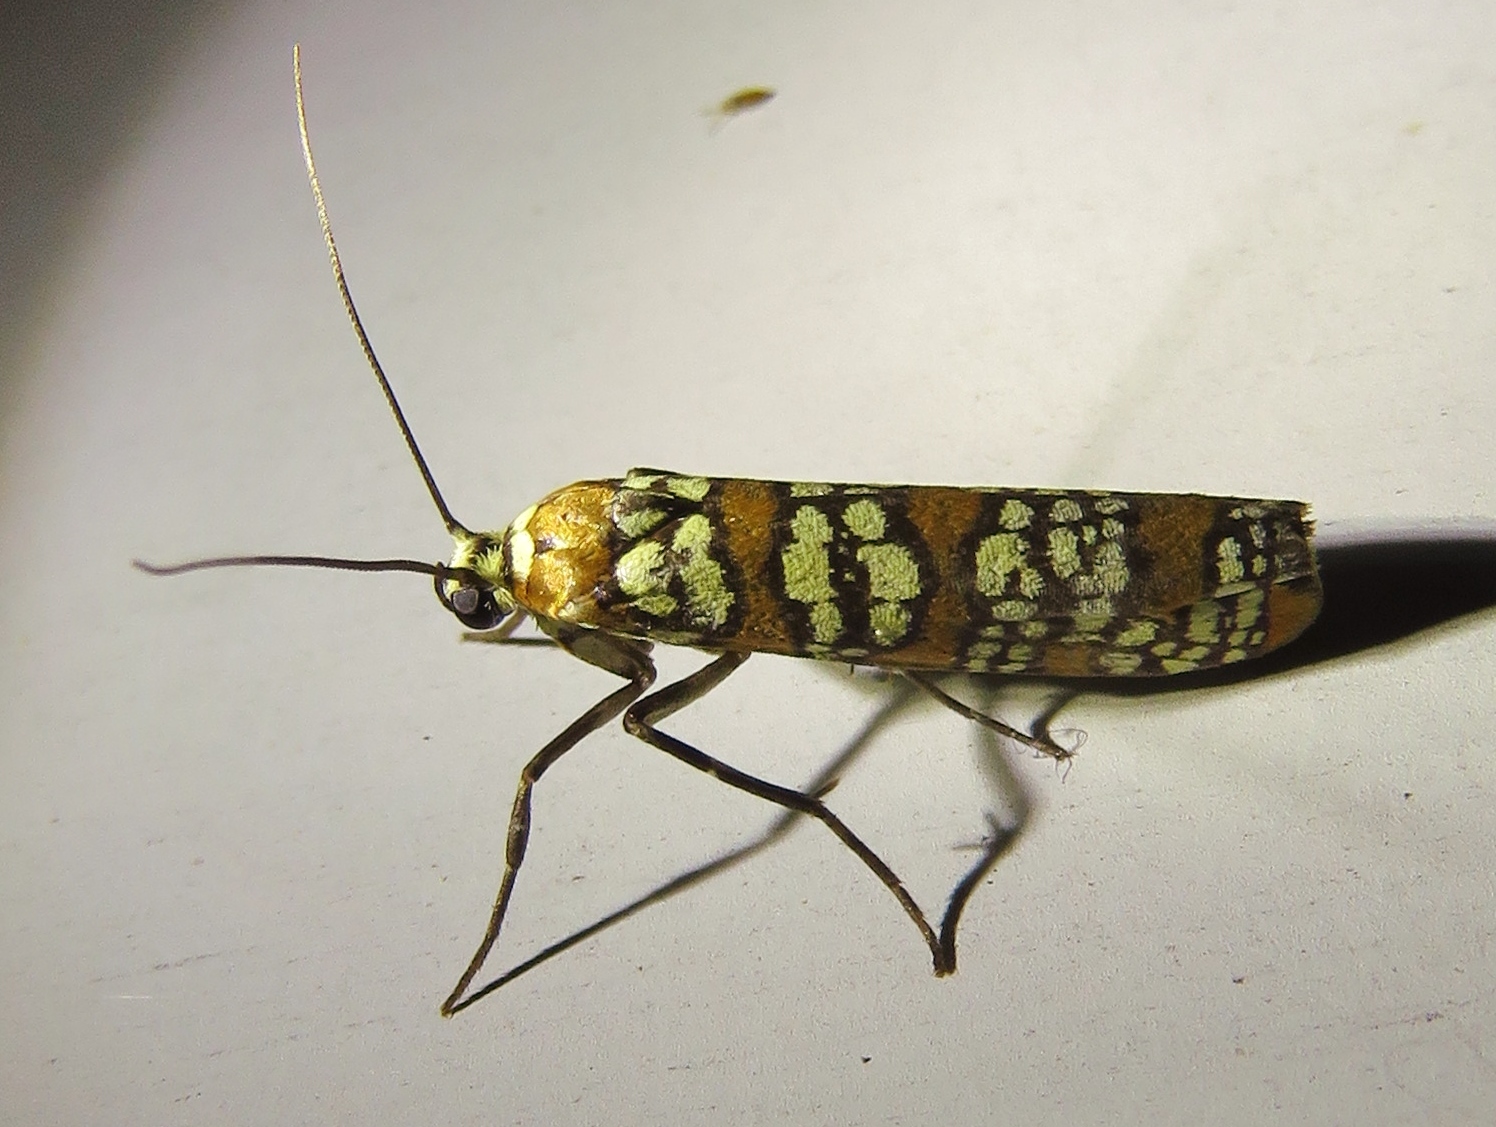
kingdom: Animalia
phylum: Arthropoda
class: Insecta
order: Lepidoptera
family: Attevidae
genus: Atteva
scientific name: Atteva punctella
